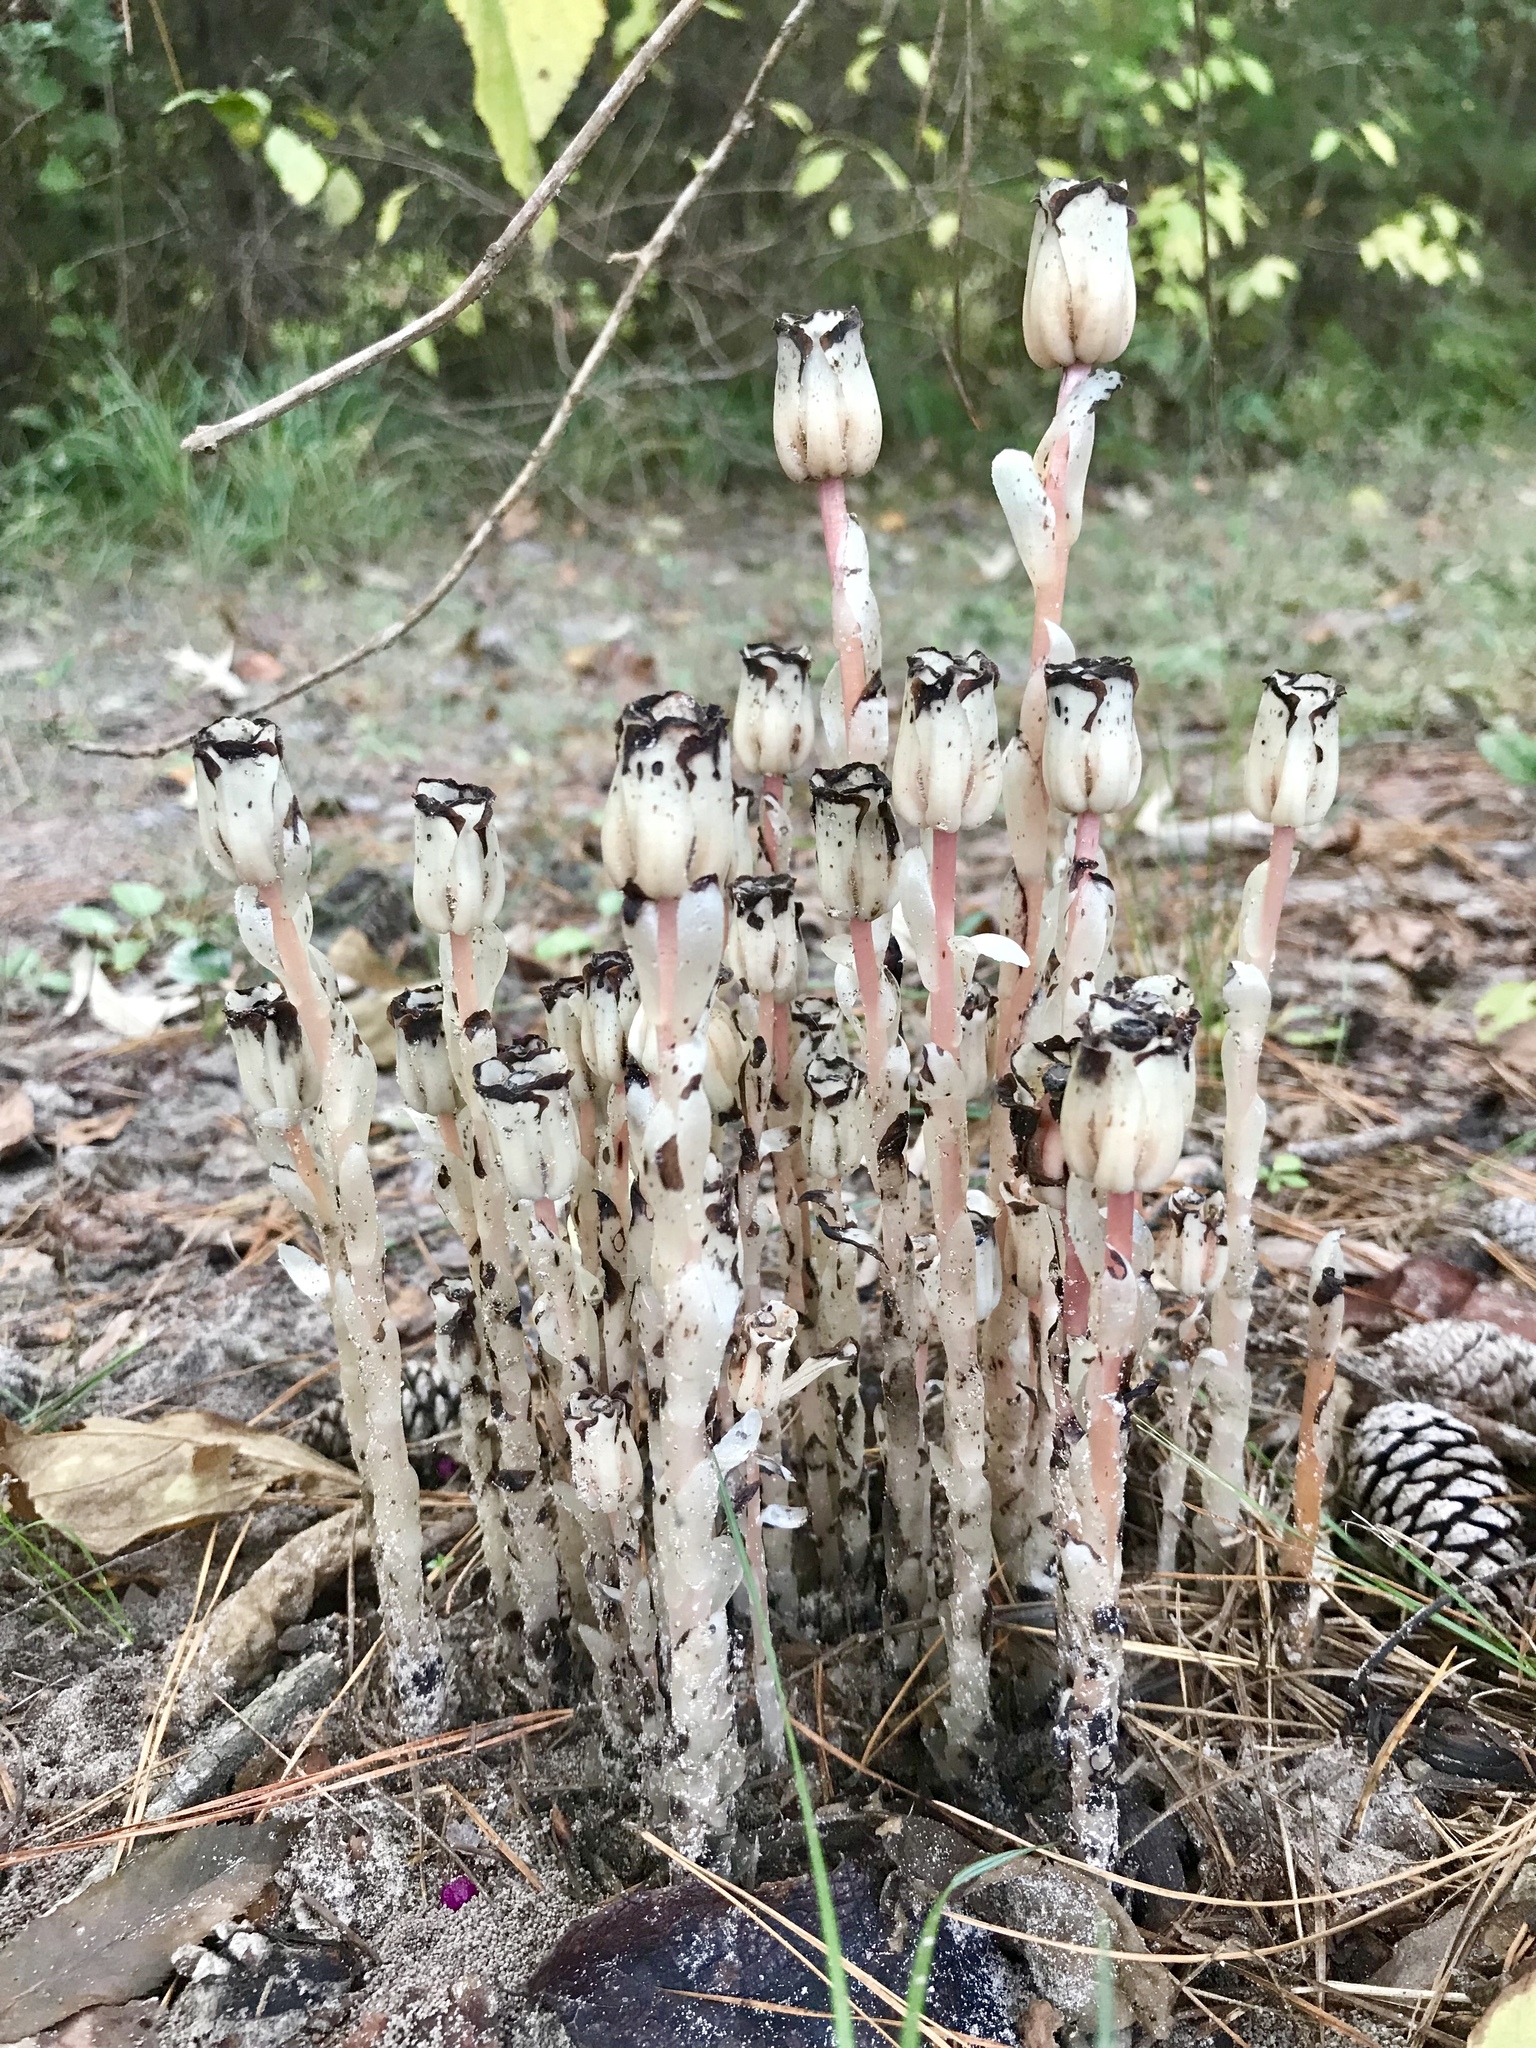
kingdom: Plantae
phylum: Tracheophyta
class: Magnoliopsida
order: Ericales
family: Ericaceae
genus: Monotropa
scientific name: Monotropa uniflora
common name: Convulsion root
